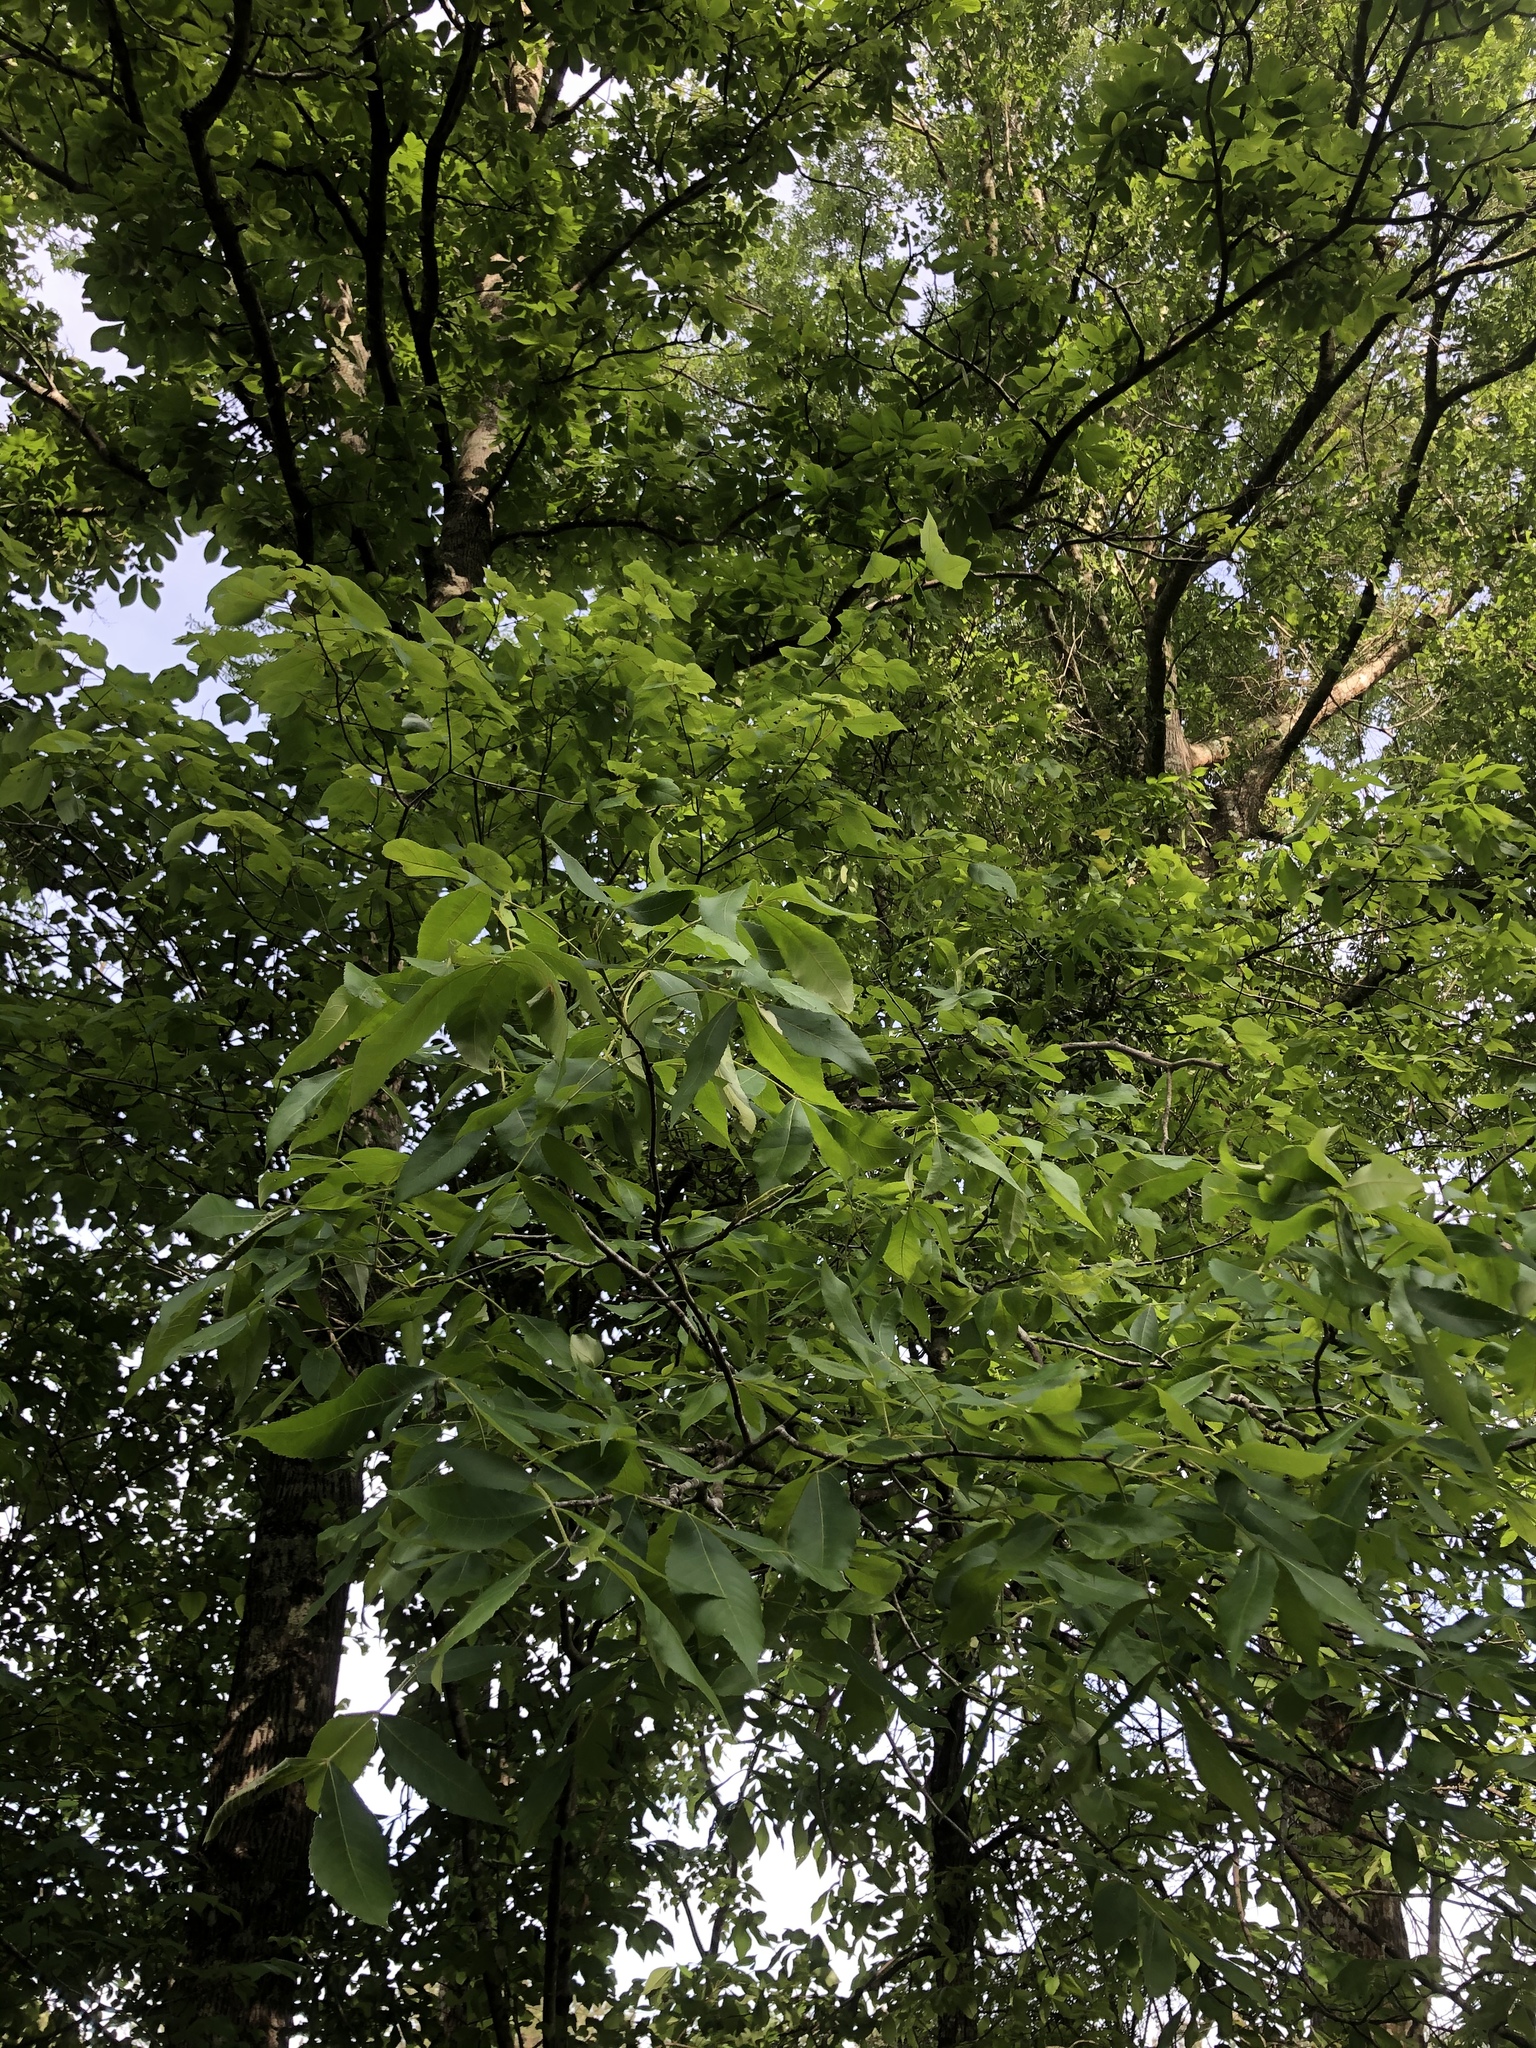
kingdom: Plantae
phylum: Tracheophyta
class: Magnoliopsida
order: Fagales
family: Juglandaceae
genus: Carya
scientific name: Carya pallida
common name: Sand hickory
